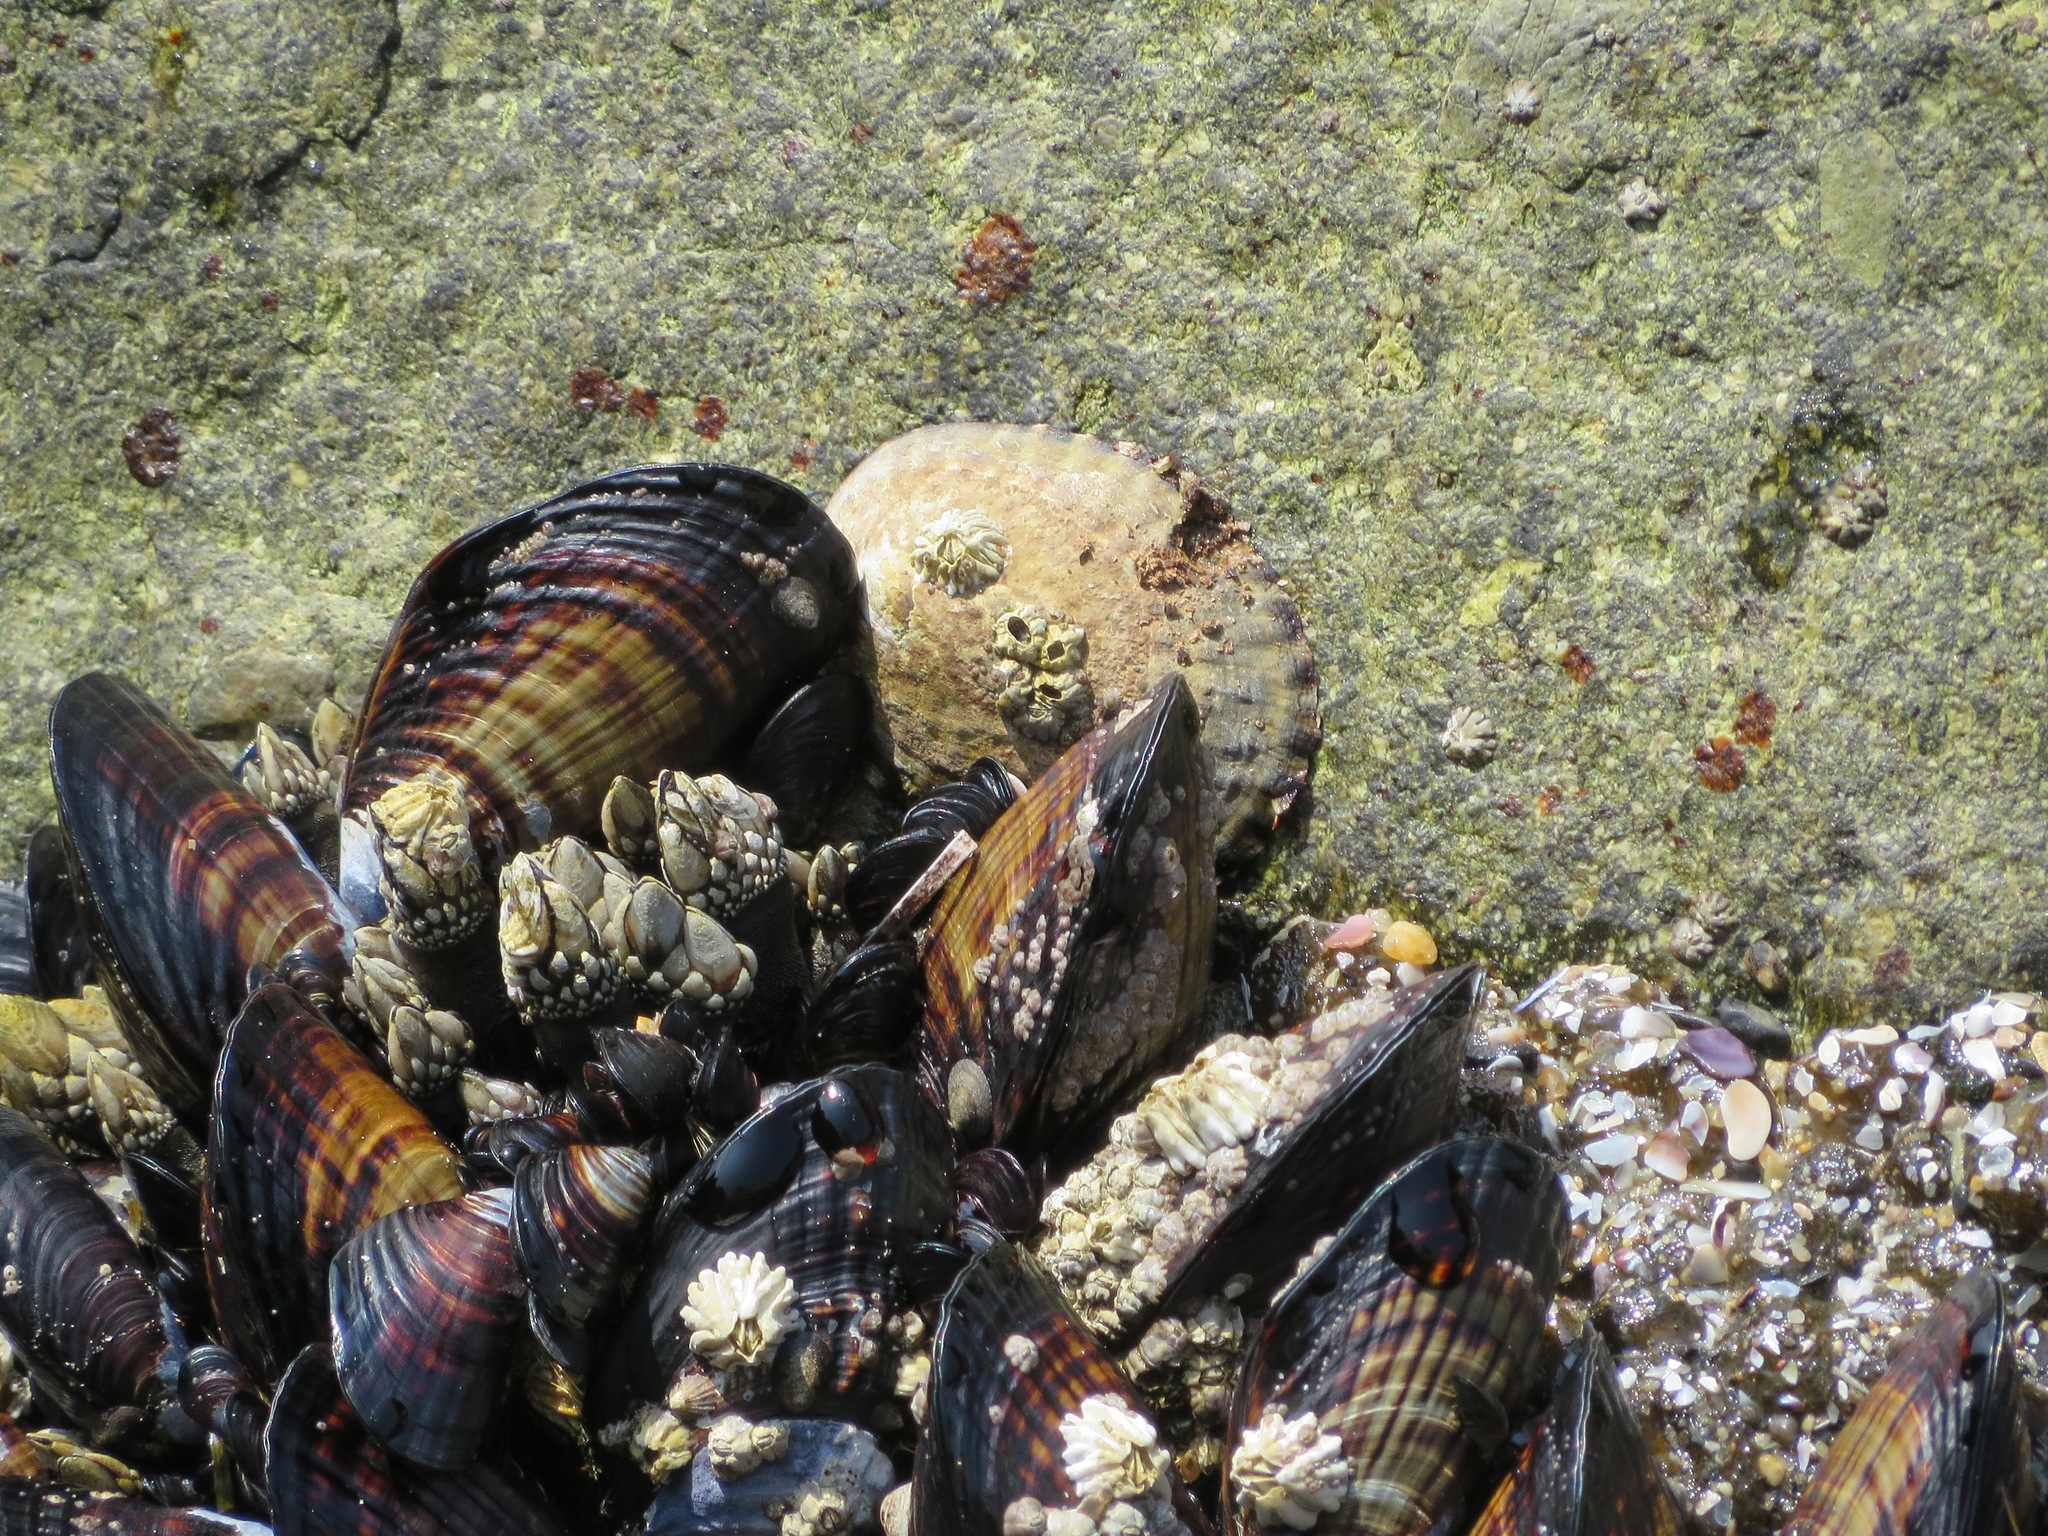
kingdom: Animalia
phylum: Mollusca
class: Gastropoda
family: Lottiidae
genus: Lottia
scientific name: Lottia gigantea
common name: Owl limpet
